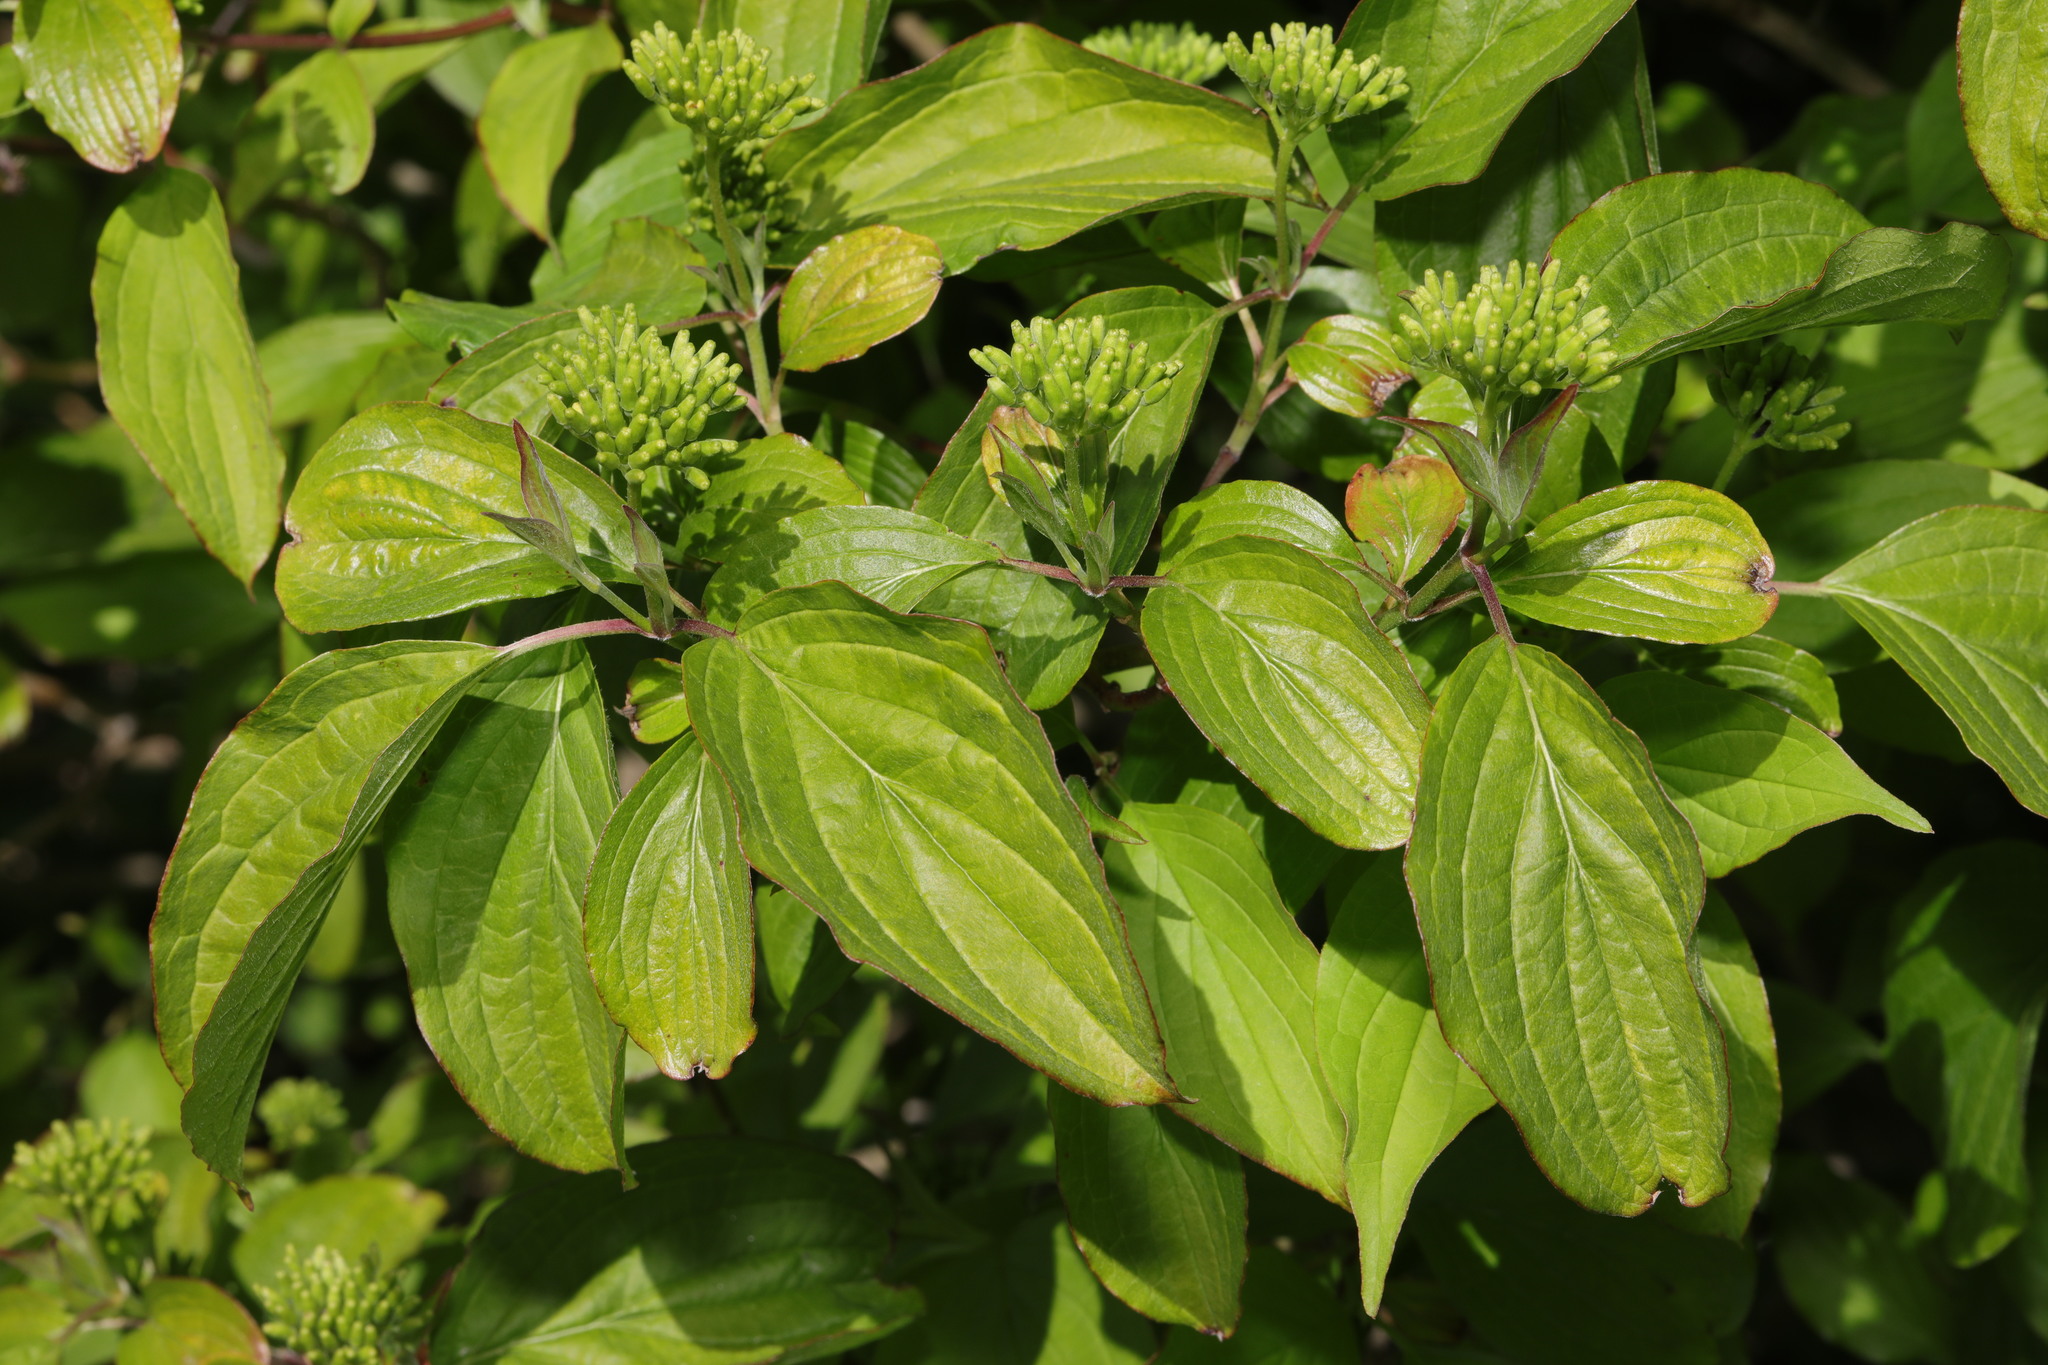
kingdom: Plantae
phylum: Tracheophyta
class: Magnoliopsida
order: Cornales
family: Cornaceae
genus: Cornus
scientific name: Cornus sanguinea
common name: Dogwood
